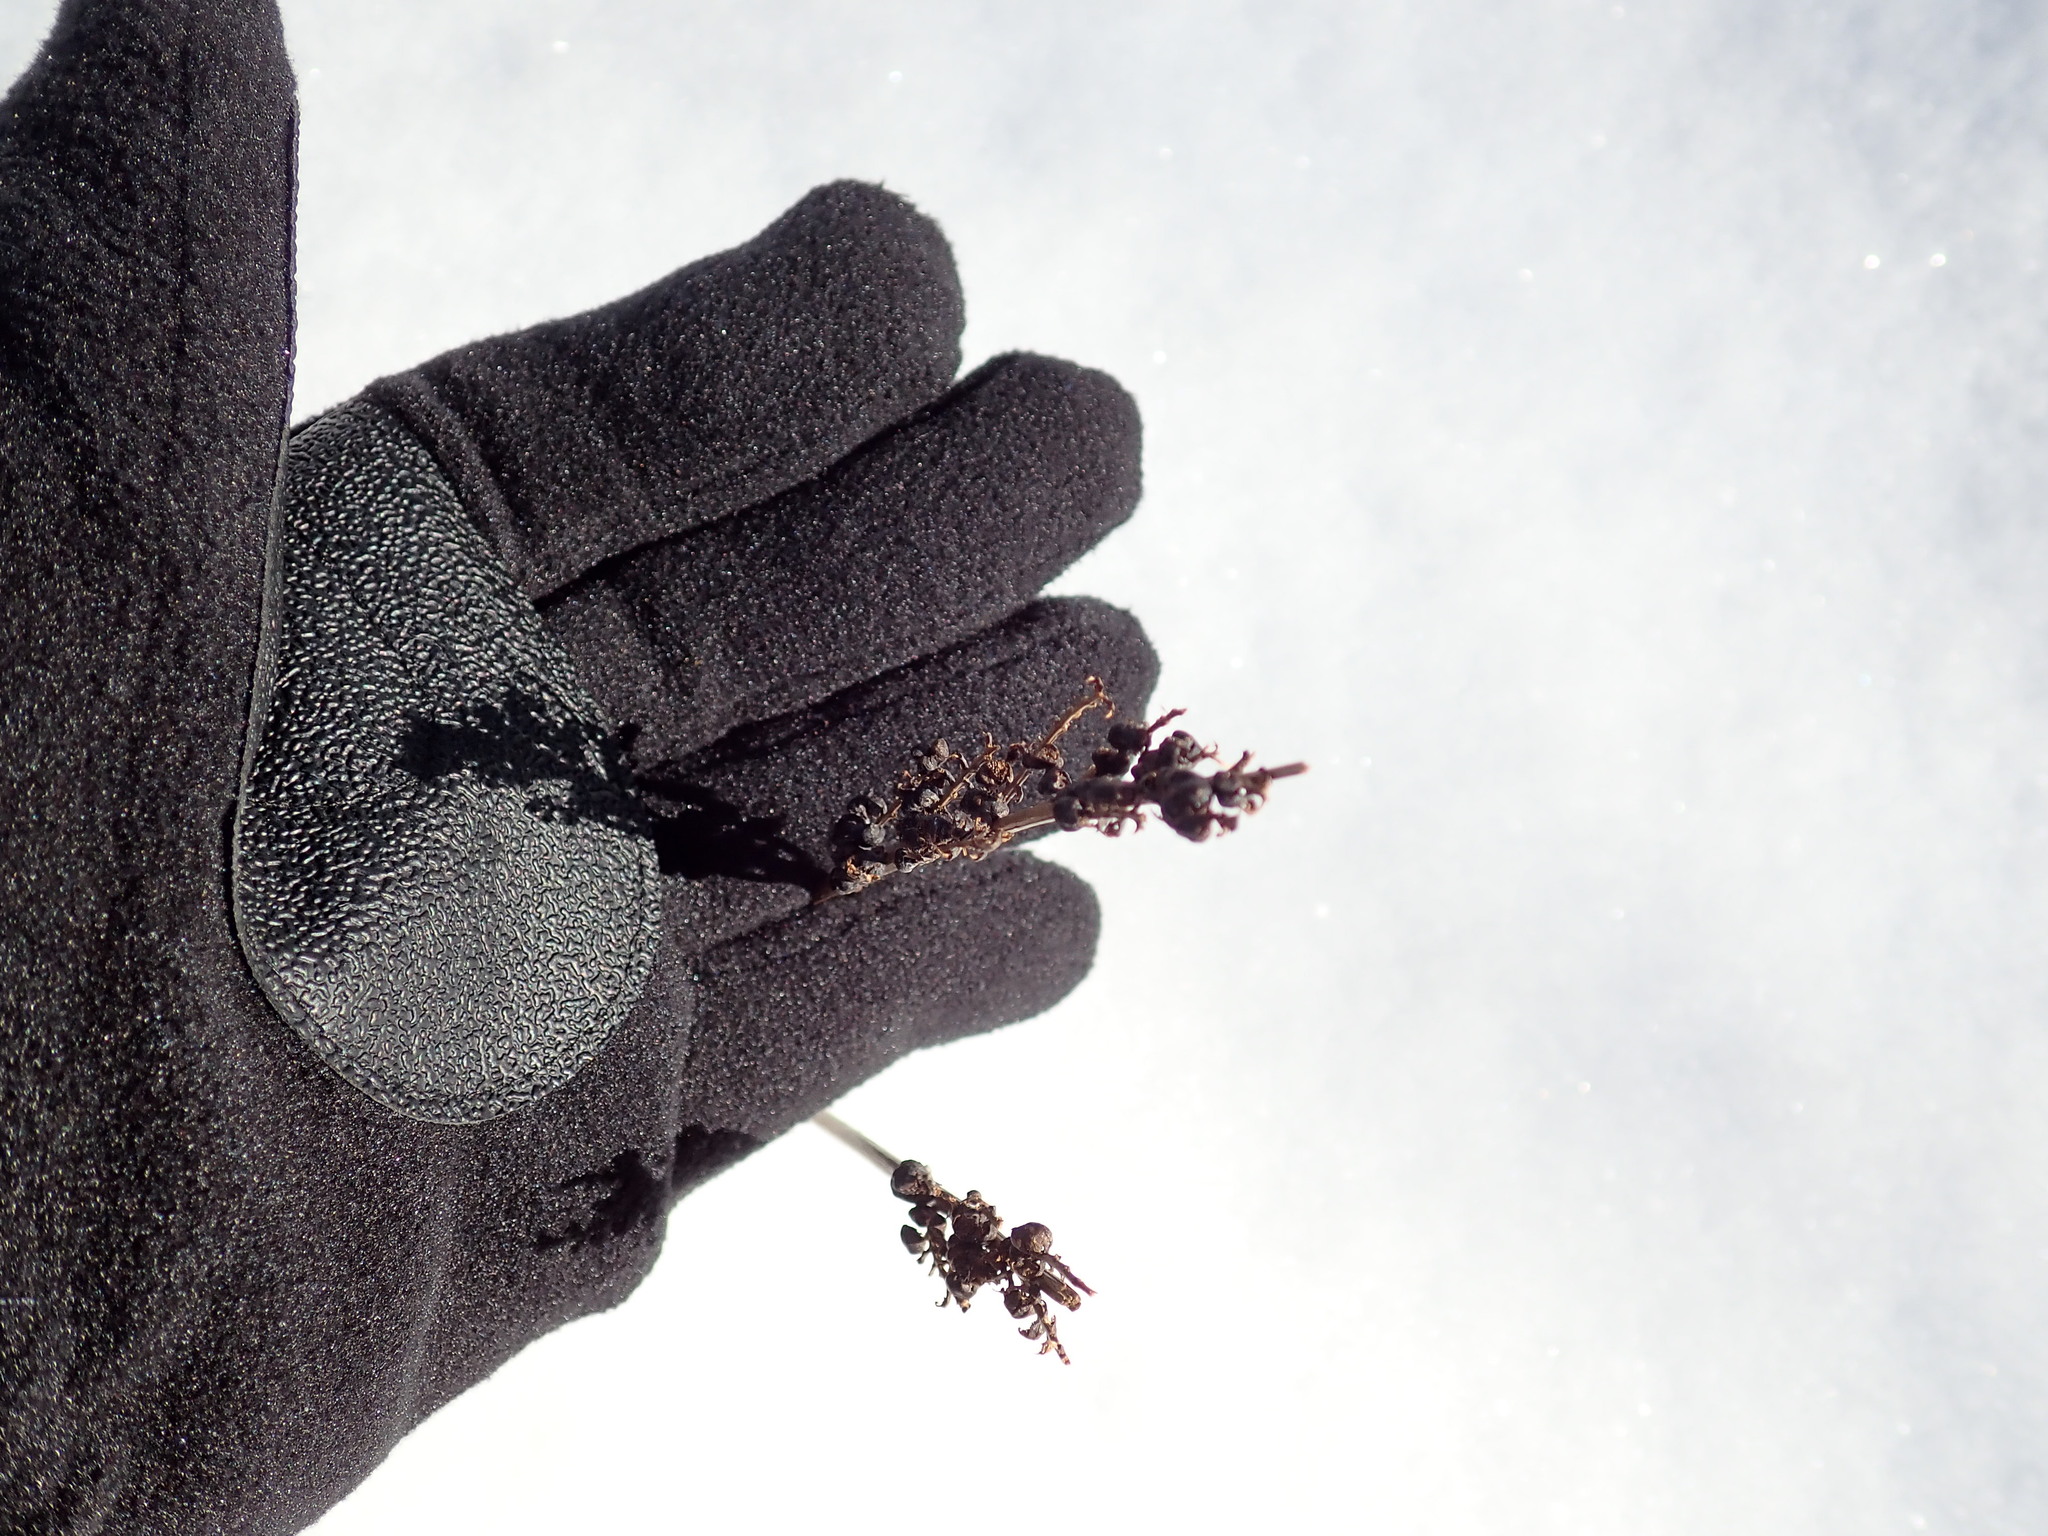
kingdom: Plantae
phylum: Tracheophyta
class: Polypodiopsida
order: Polypodiales
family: Onocleaceae
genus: Onoclea
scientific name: Onoclea sensibilis
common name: Sensitive fern
